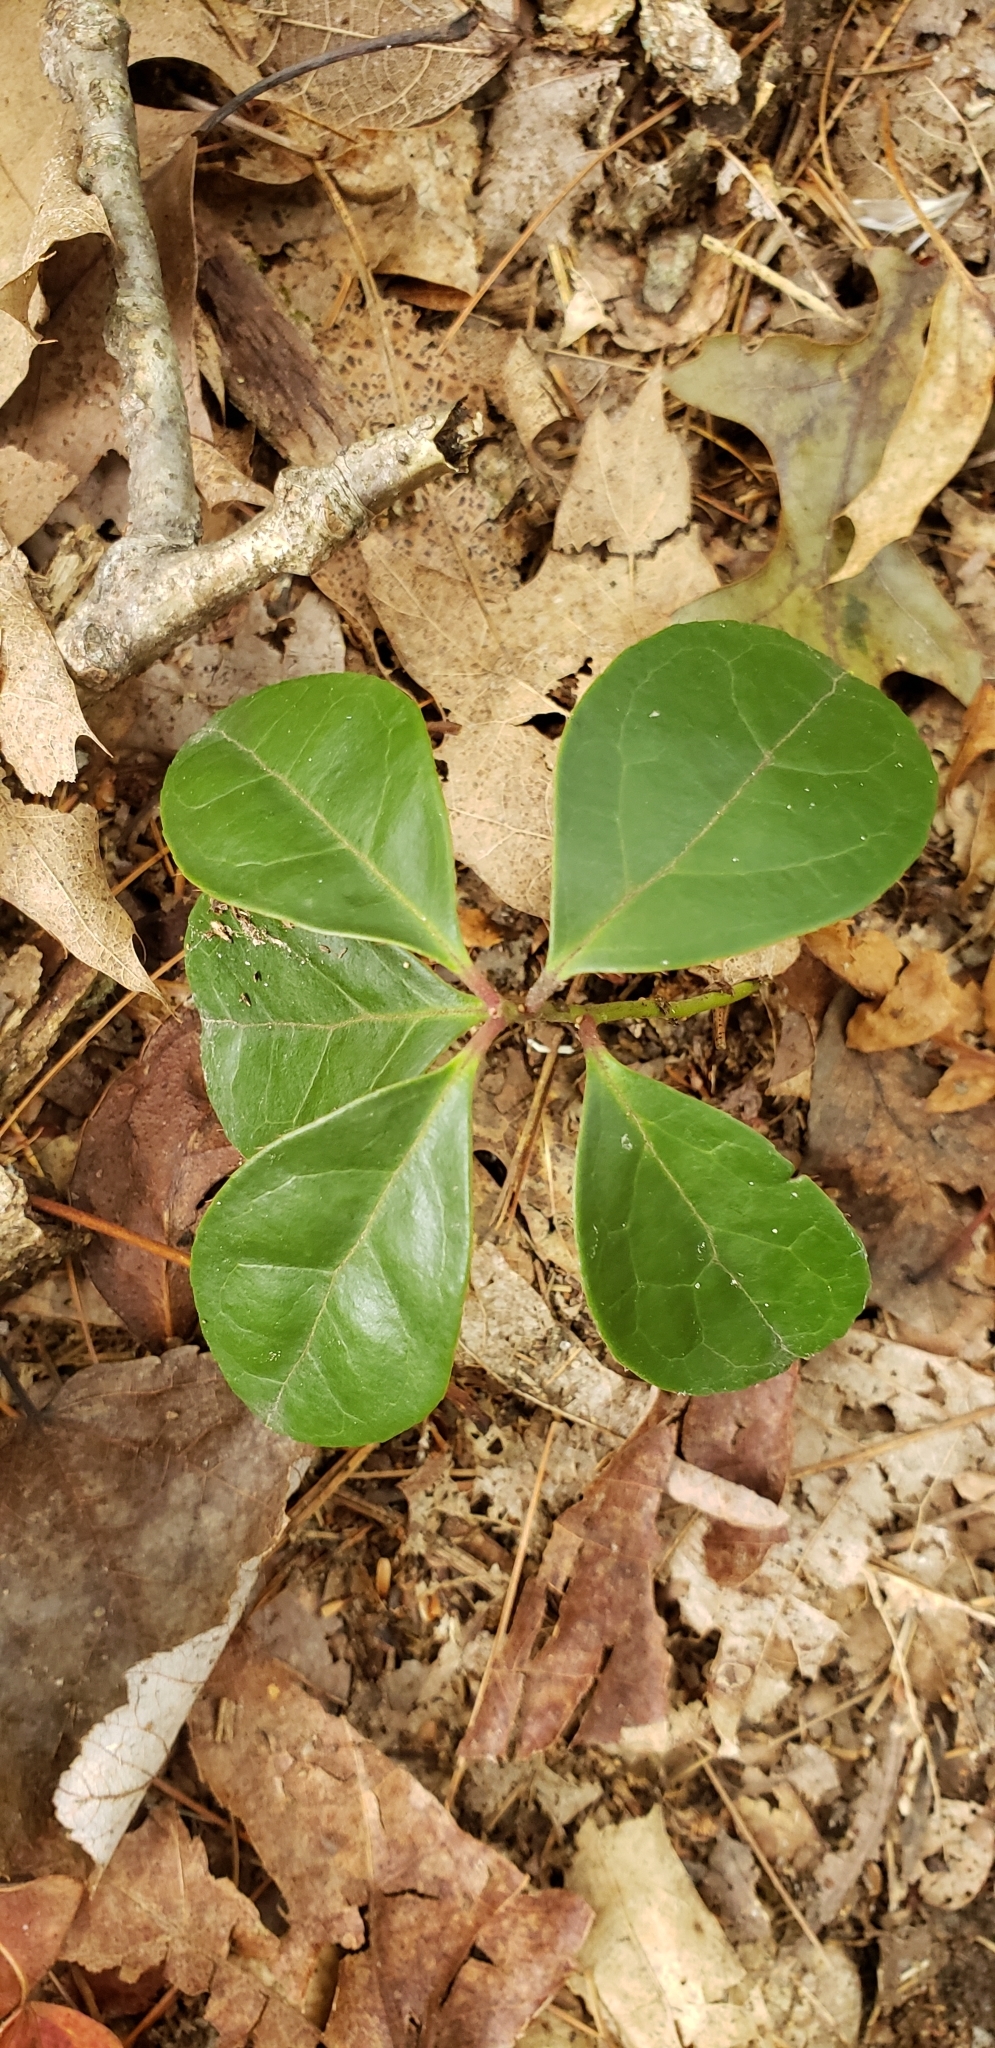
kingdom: Plantae
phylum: Tracheophyta
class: Magnoliopsida
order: Ericales
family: Ericaceae
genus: Gaultheria
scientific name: Gaultheria procumbens
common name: Checkerberry
